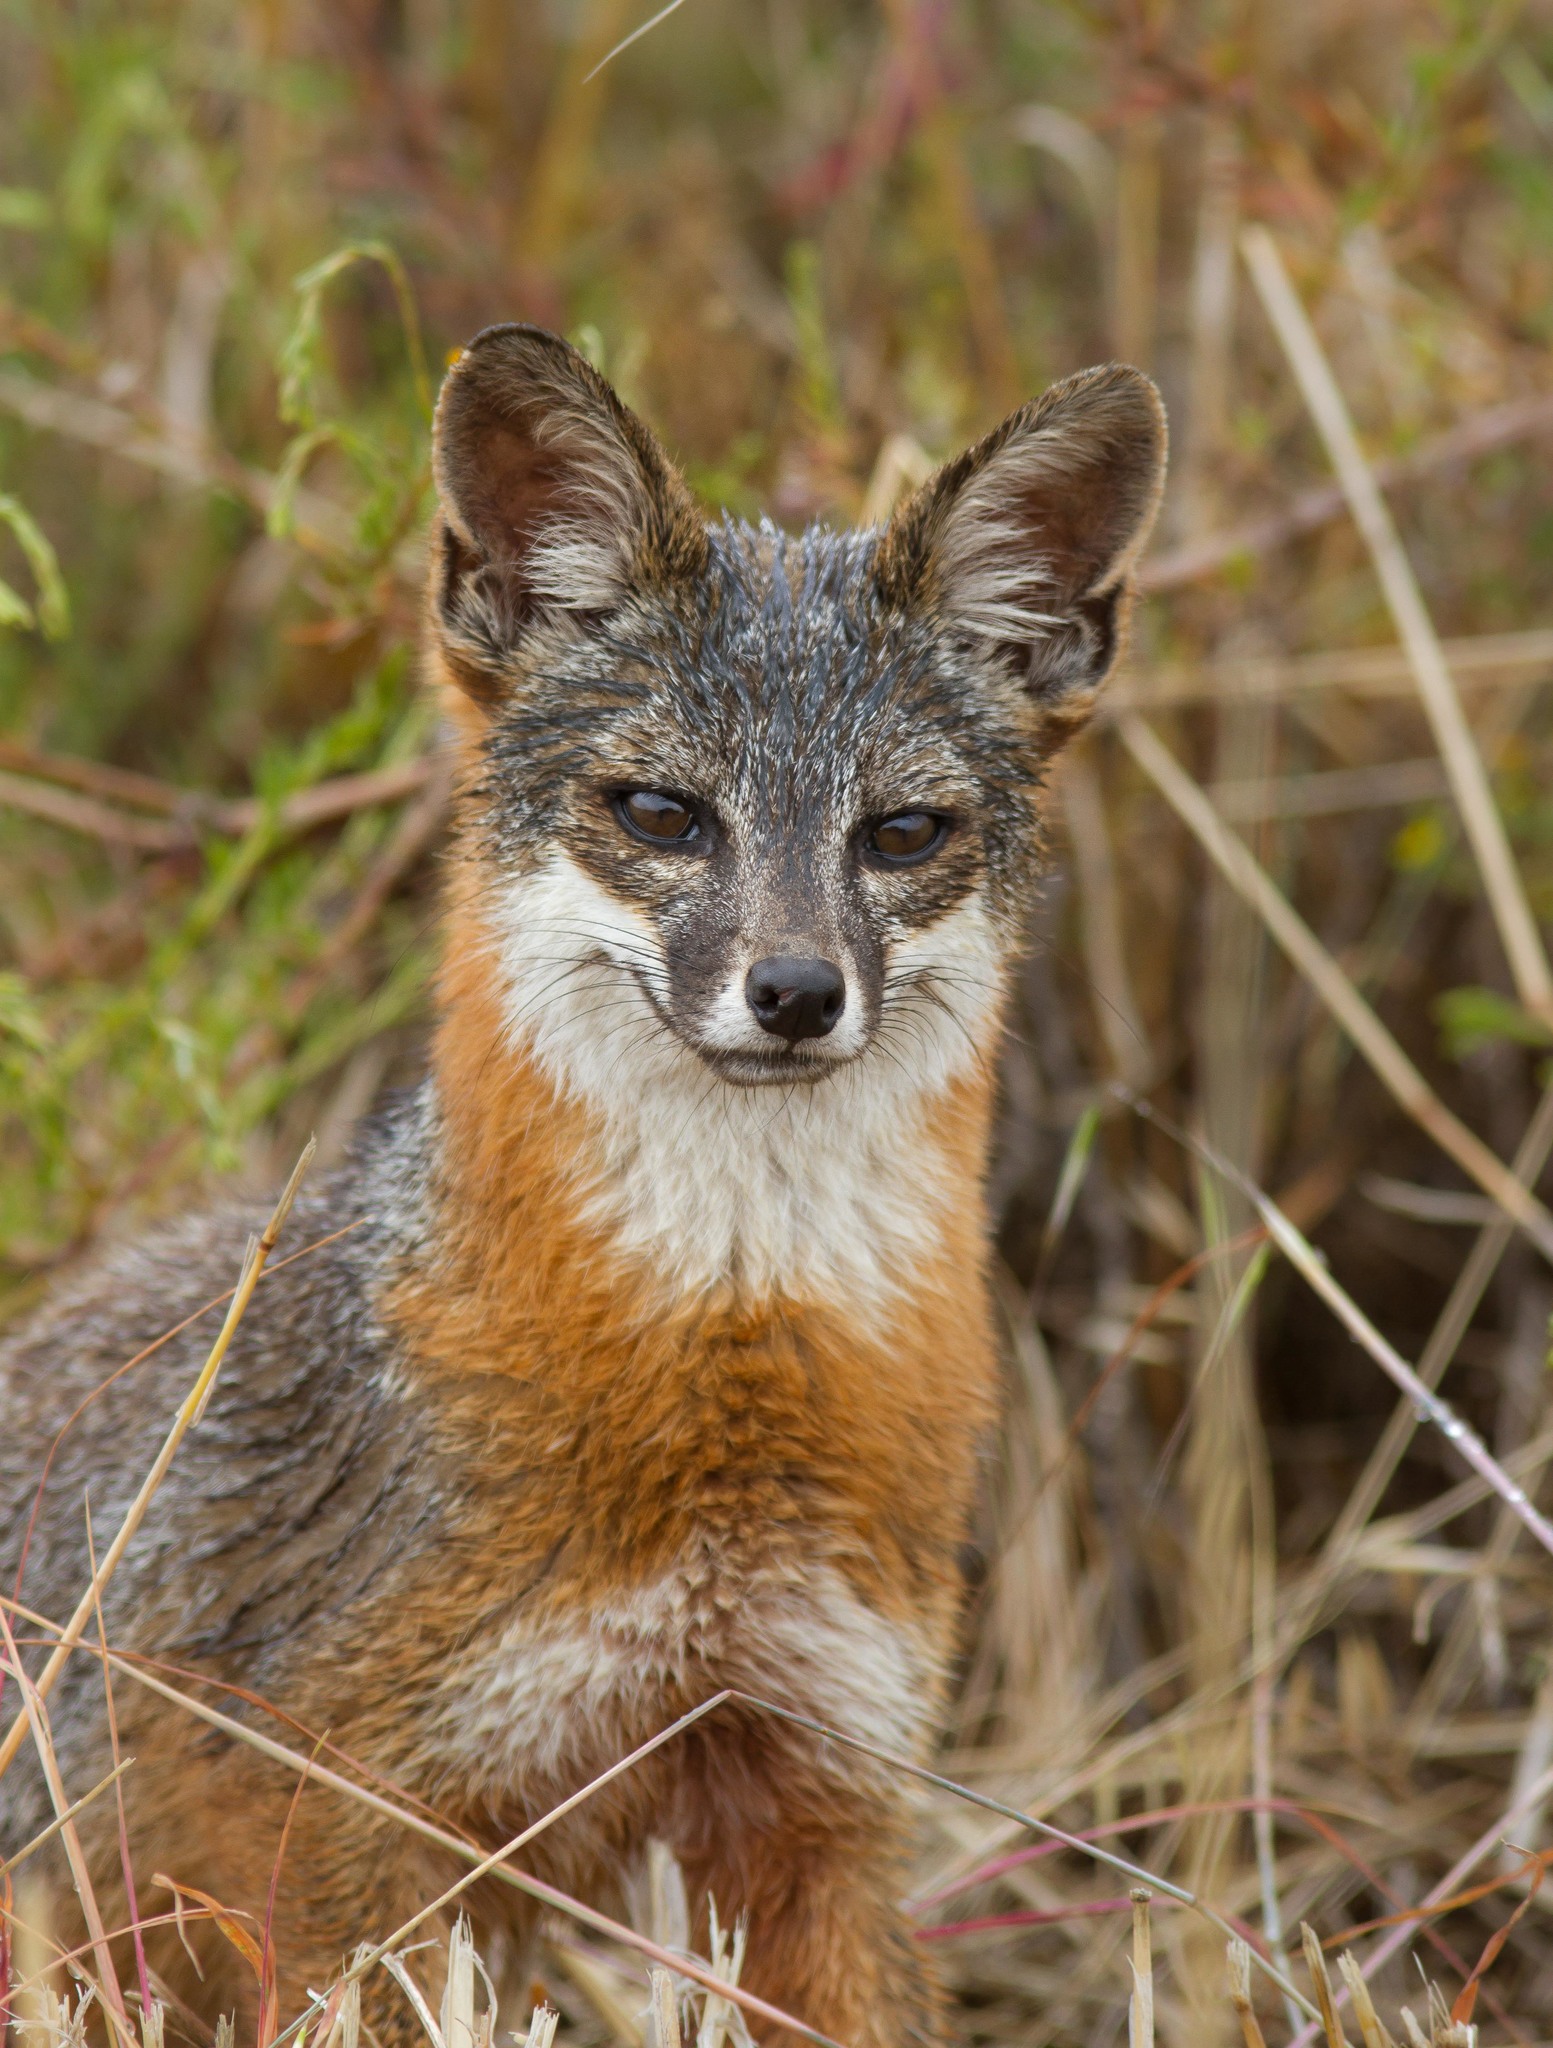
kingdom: Animalia
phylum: Chordata
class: Mammalia
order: Carnivora
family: Canidae
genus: Urocyon
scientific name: Urocyon littoralis
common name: Island gray fox
